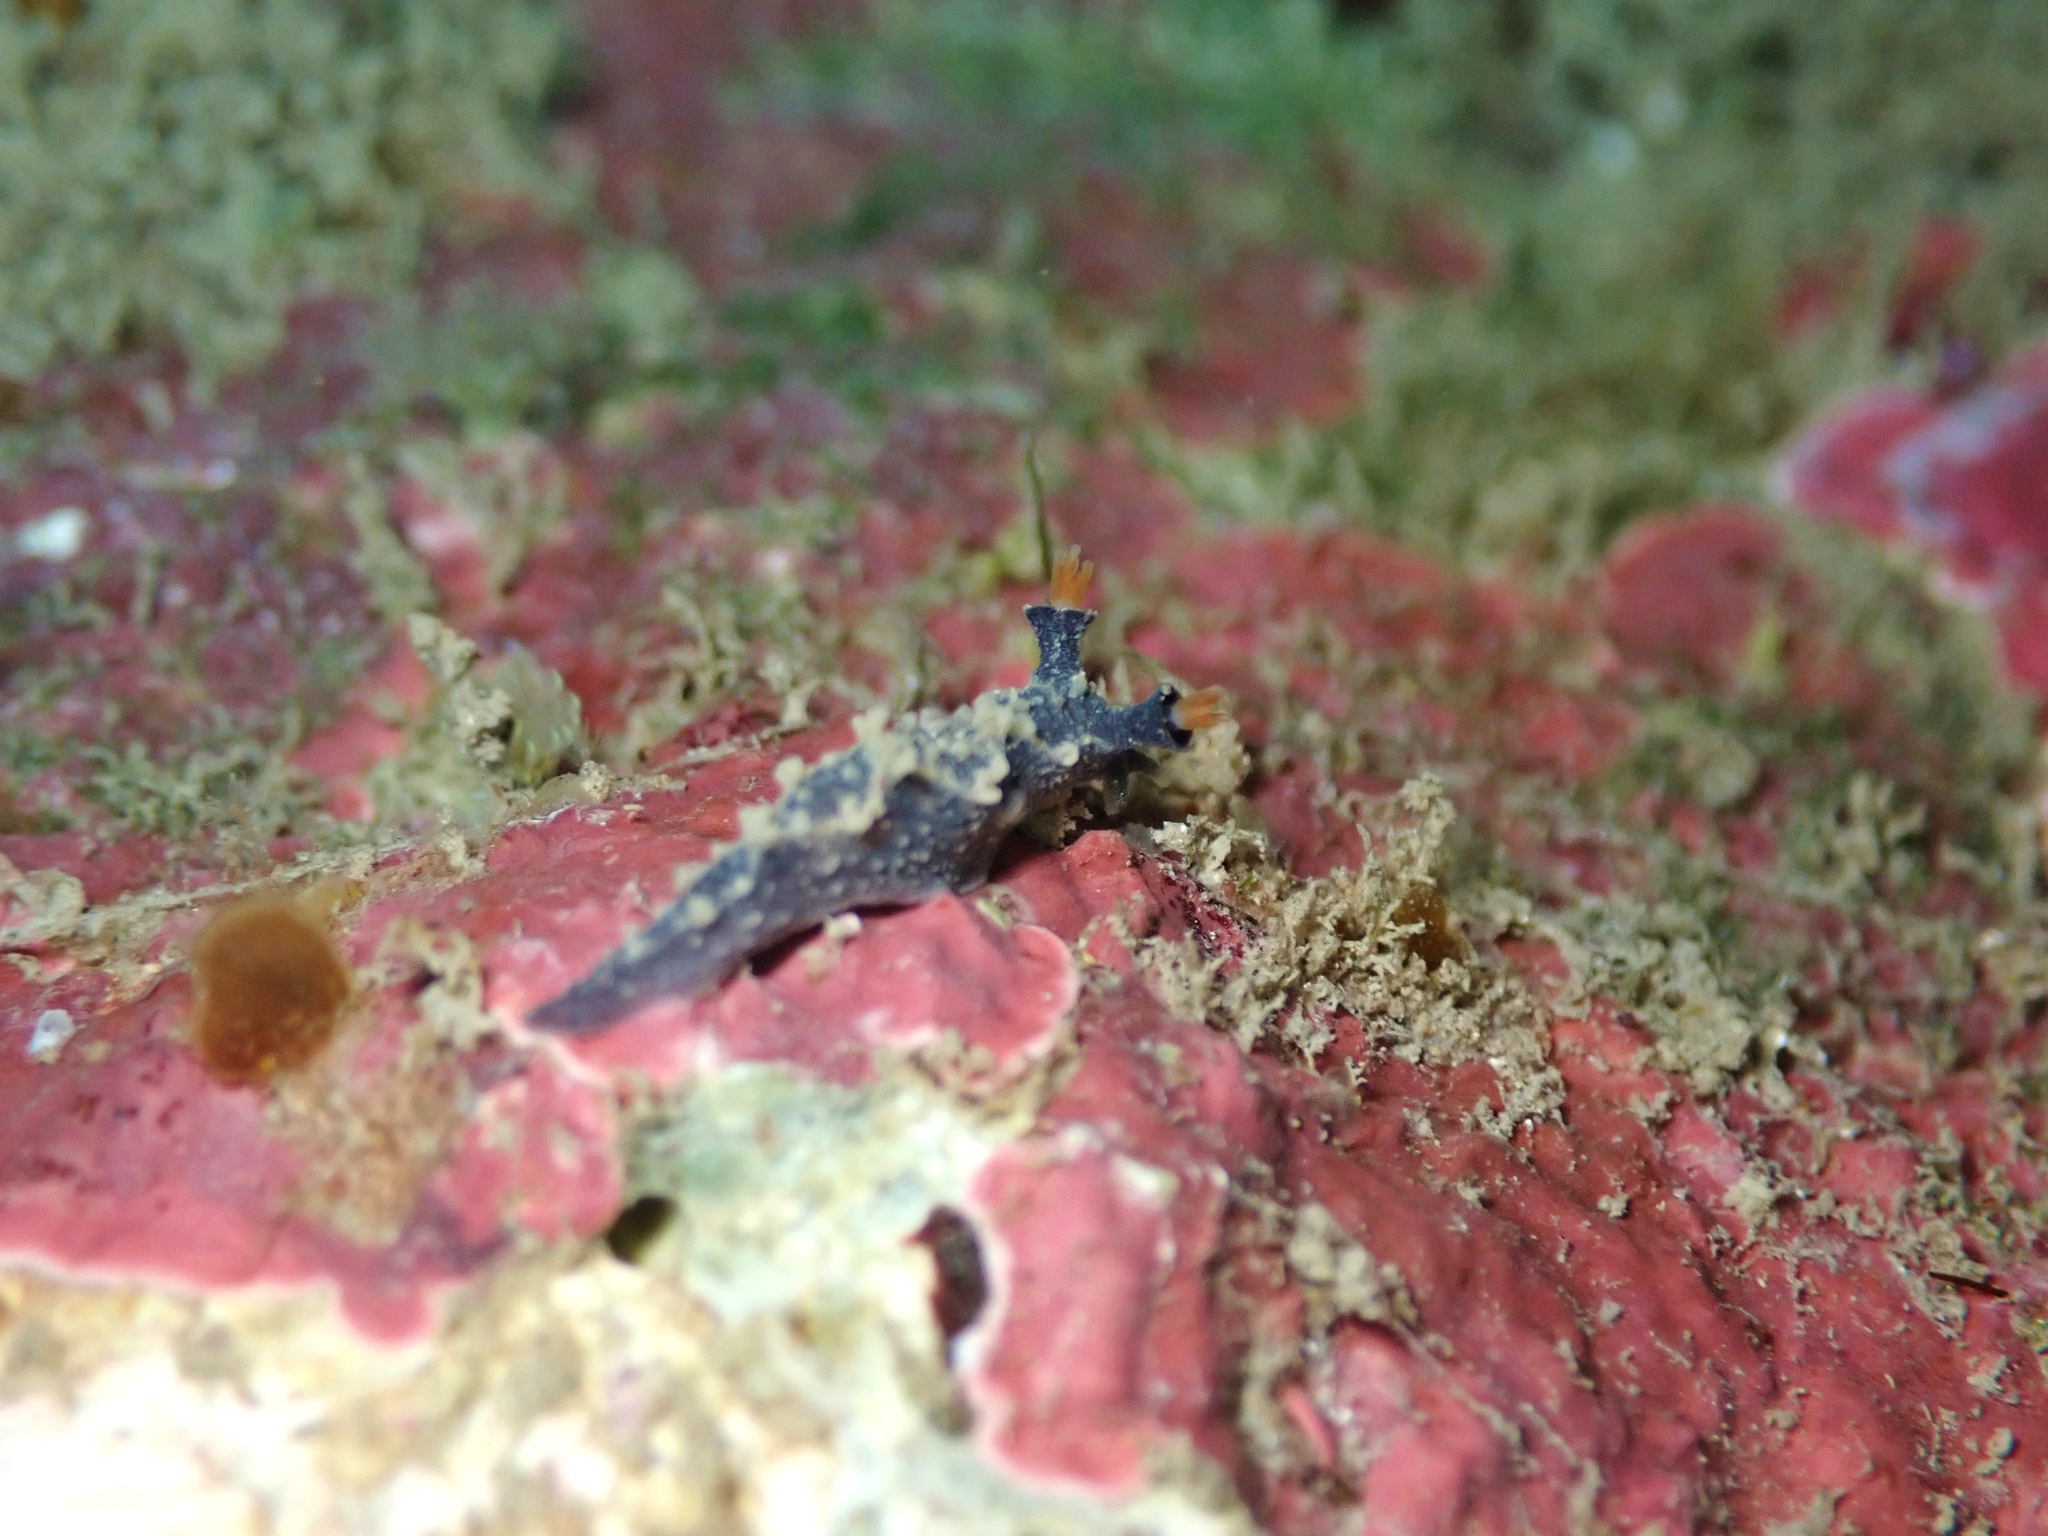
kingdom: Animalia
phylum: Mollusca
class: Gastropoda
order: Nudibranchia
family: Tritoniidae
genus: Tritonia
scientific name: Tritonia flemingi
